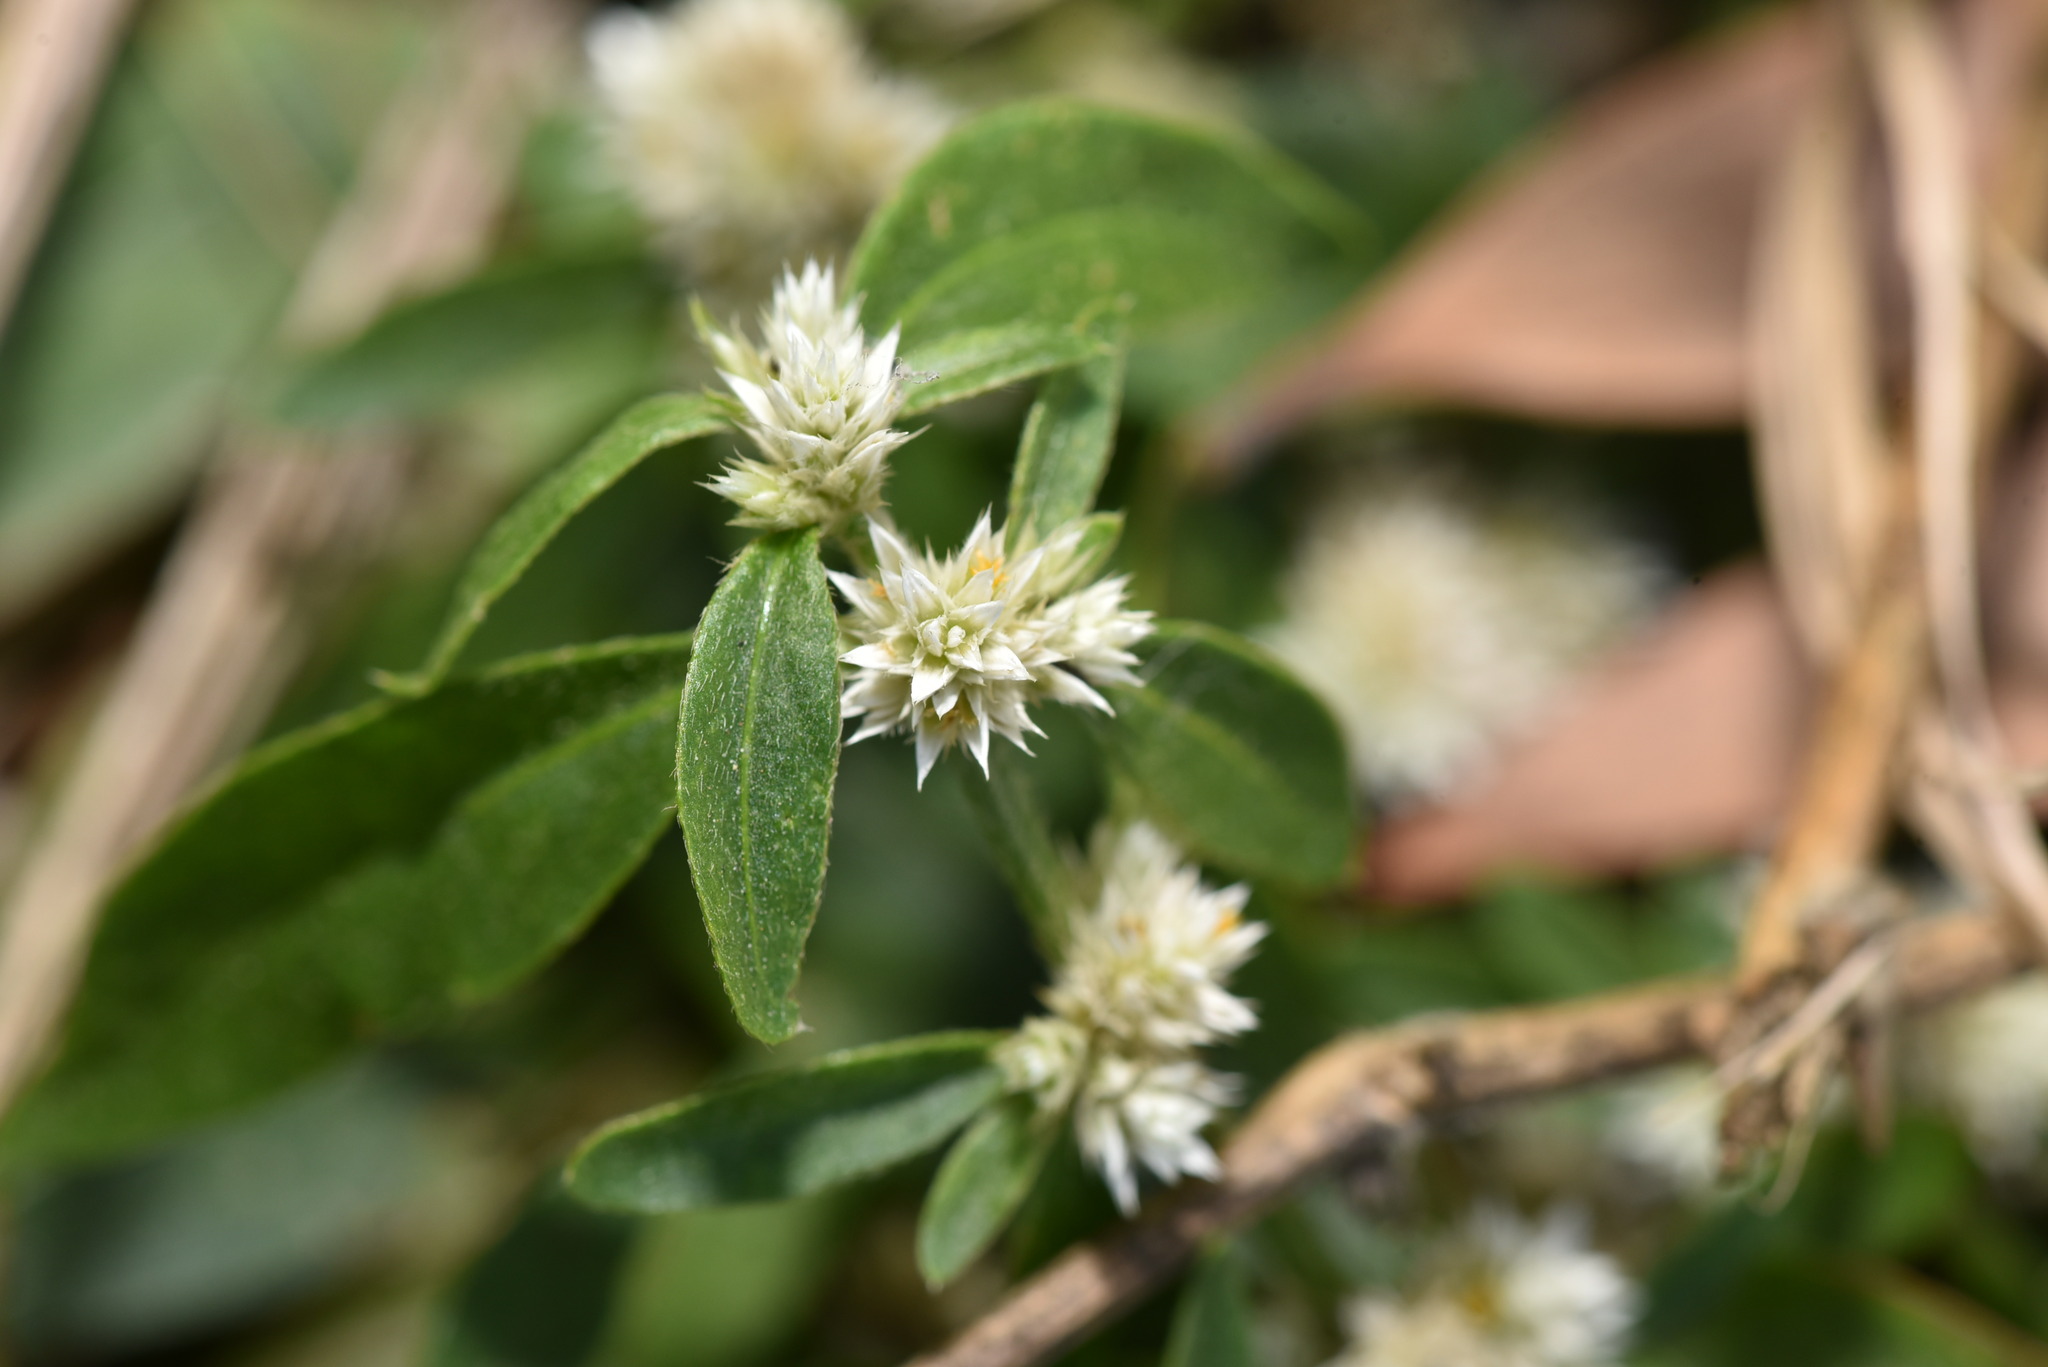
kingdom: Plantae
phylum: Tracheophyta
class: Magnoliopsida
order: Caryophyllales
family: Amaranthaceae
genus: Alternanthera
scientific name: Alternanthera ficoidea
